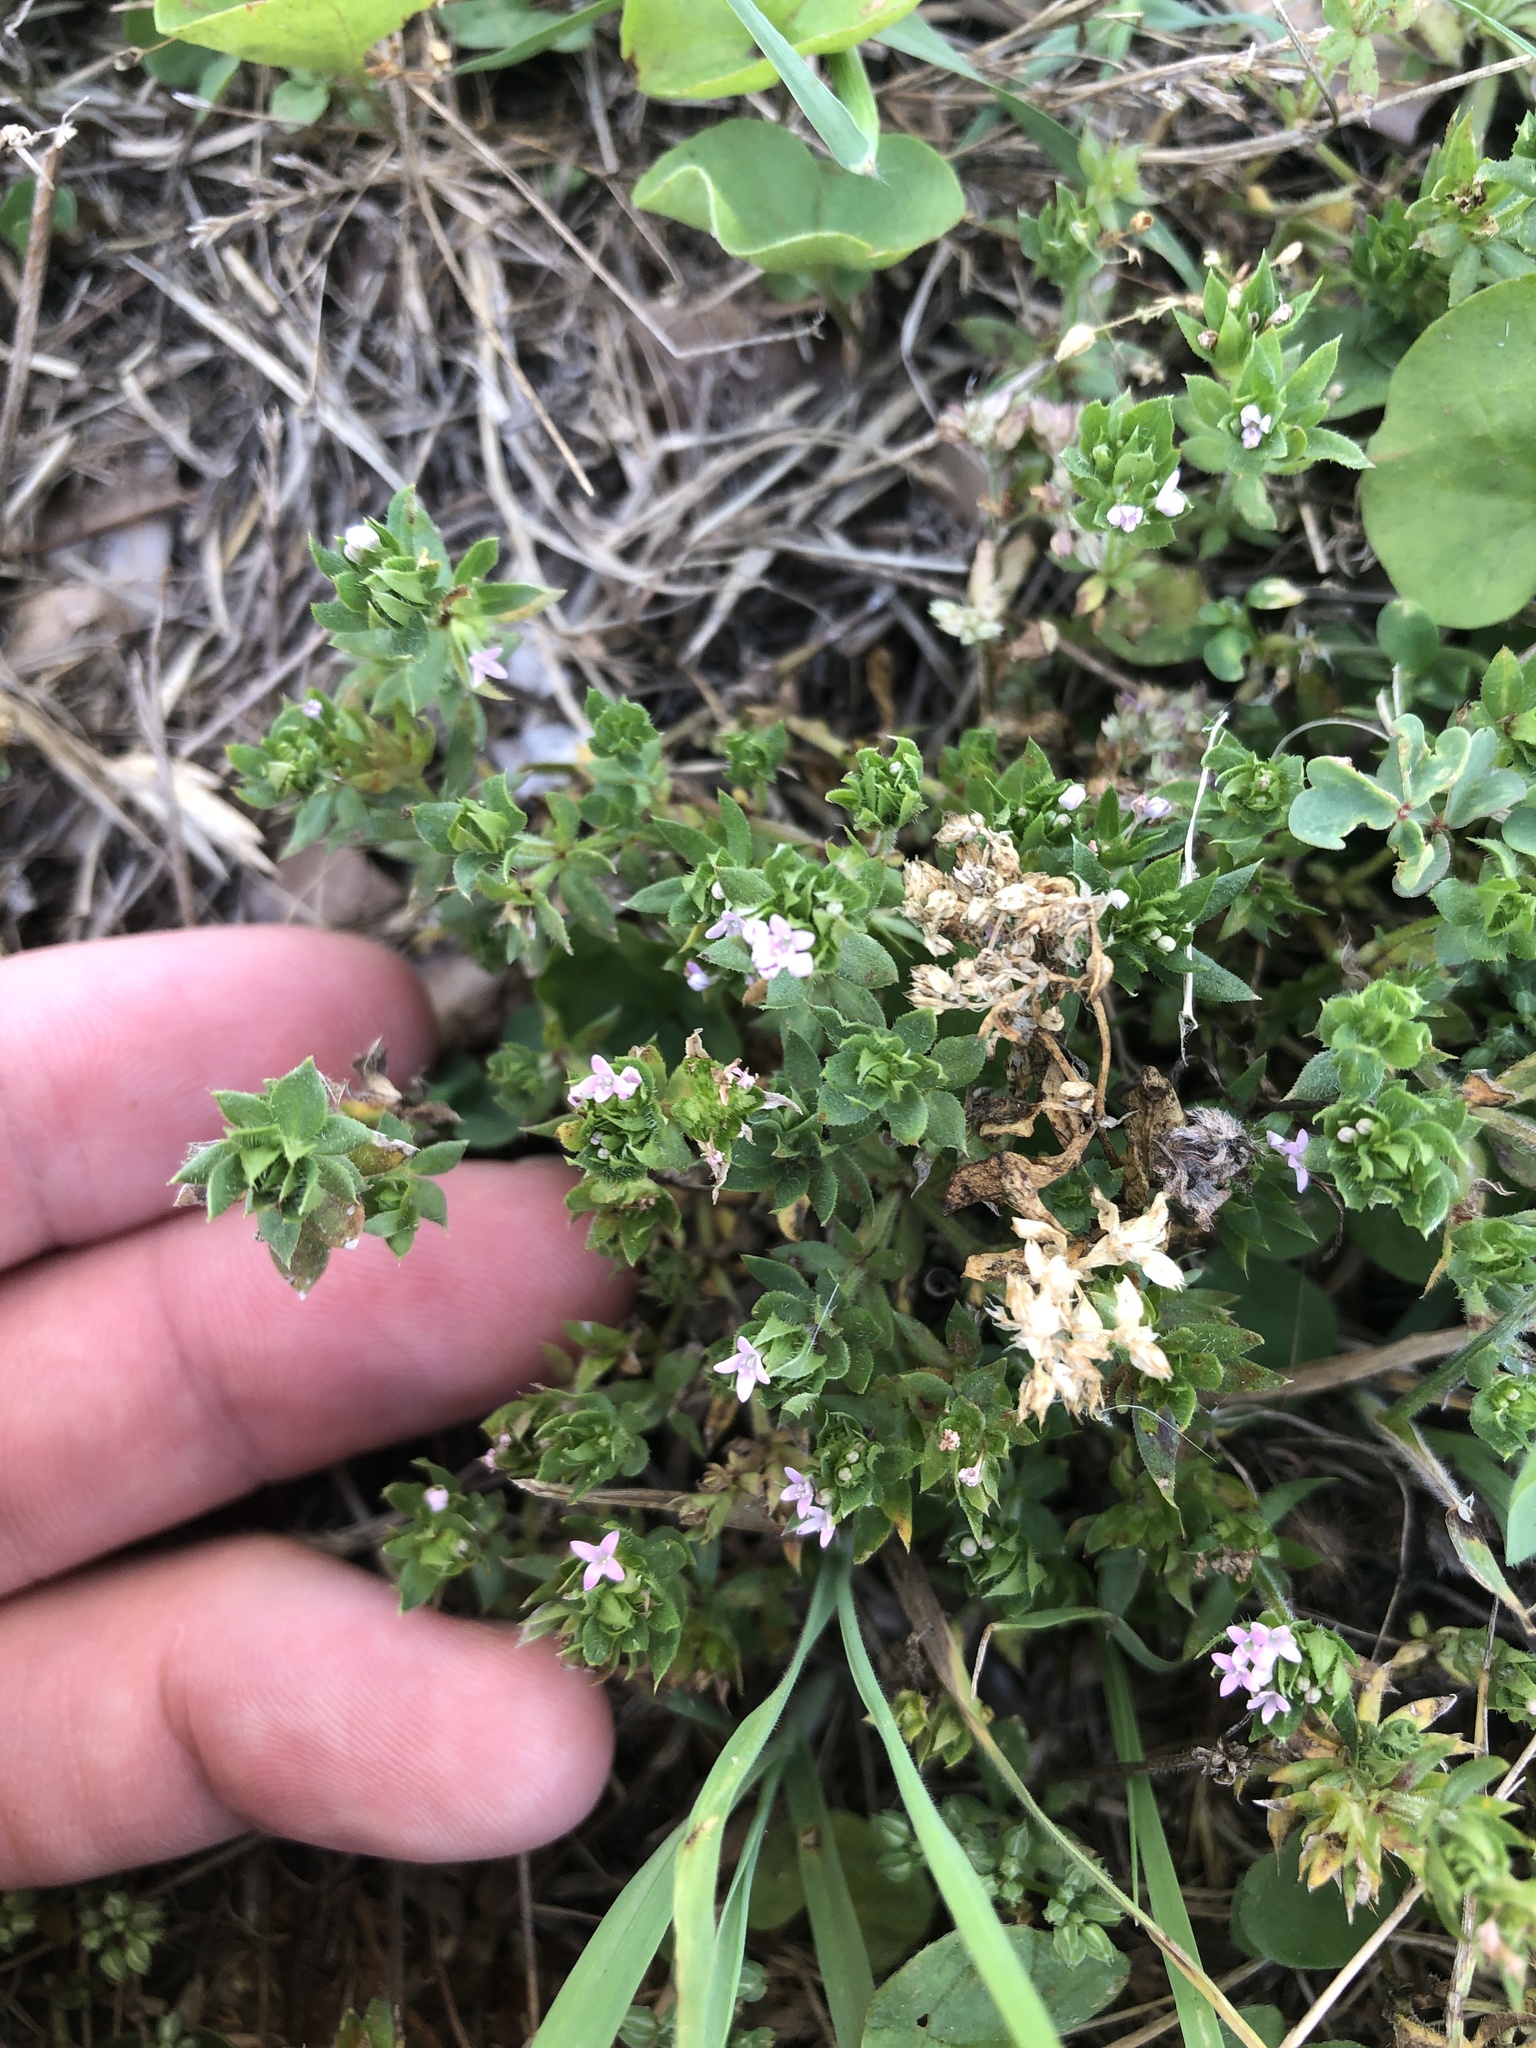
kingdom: Plantae
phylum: Tracheophyta
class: Magnoliopsida
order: Gentianales
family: Rubiaceae
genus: Sherardia
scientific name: Sherardia arvensis
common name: Field madder
